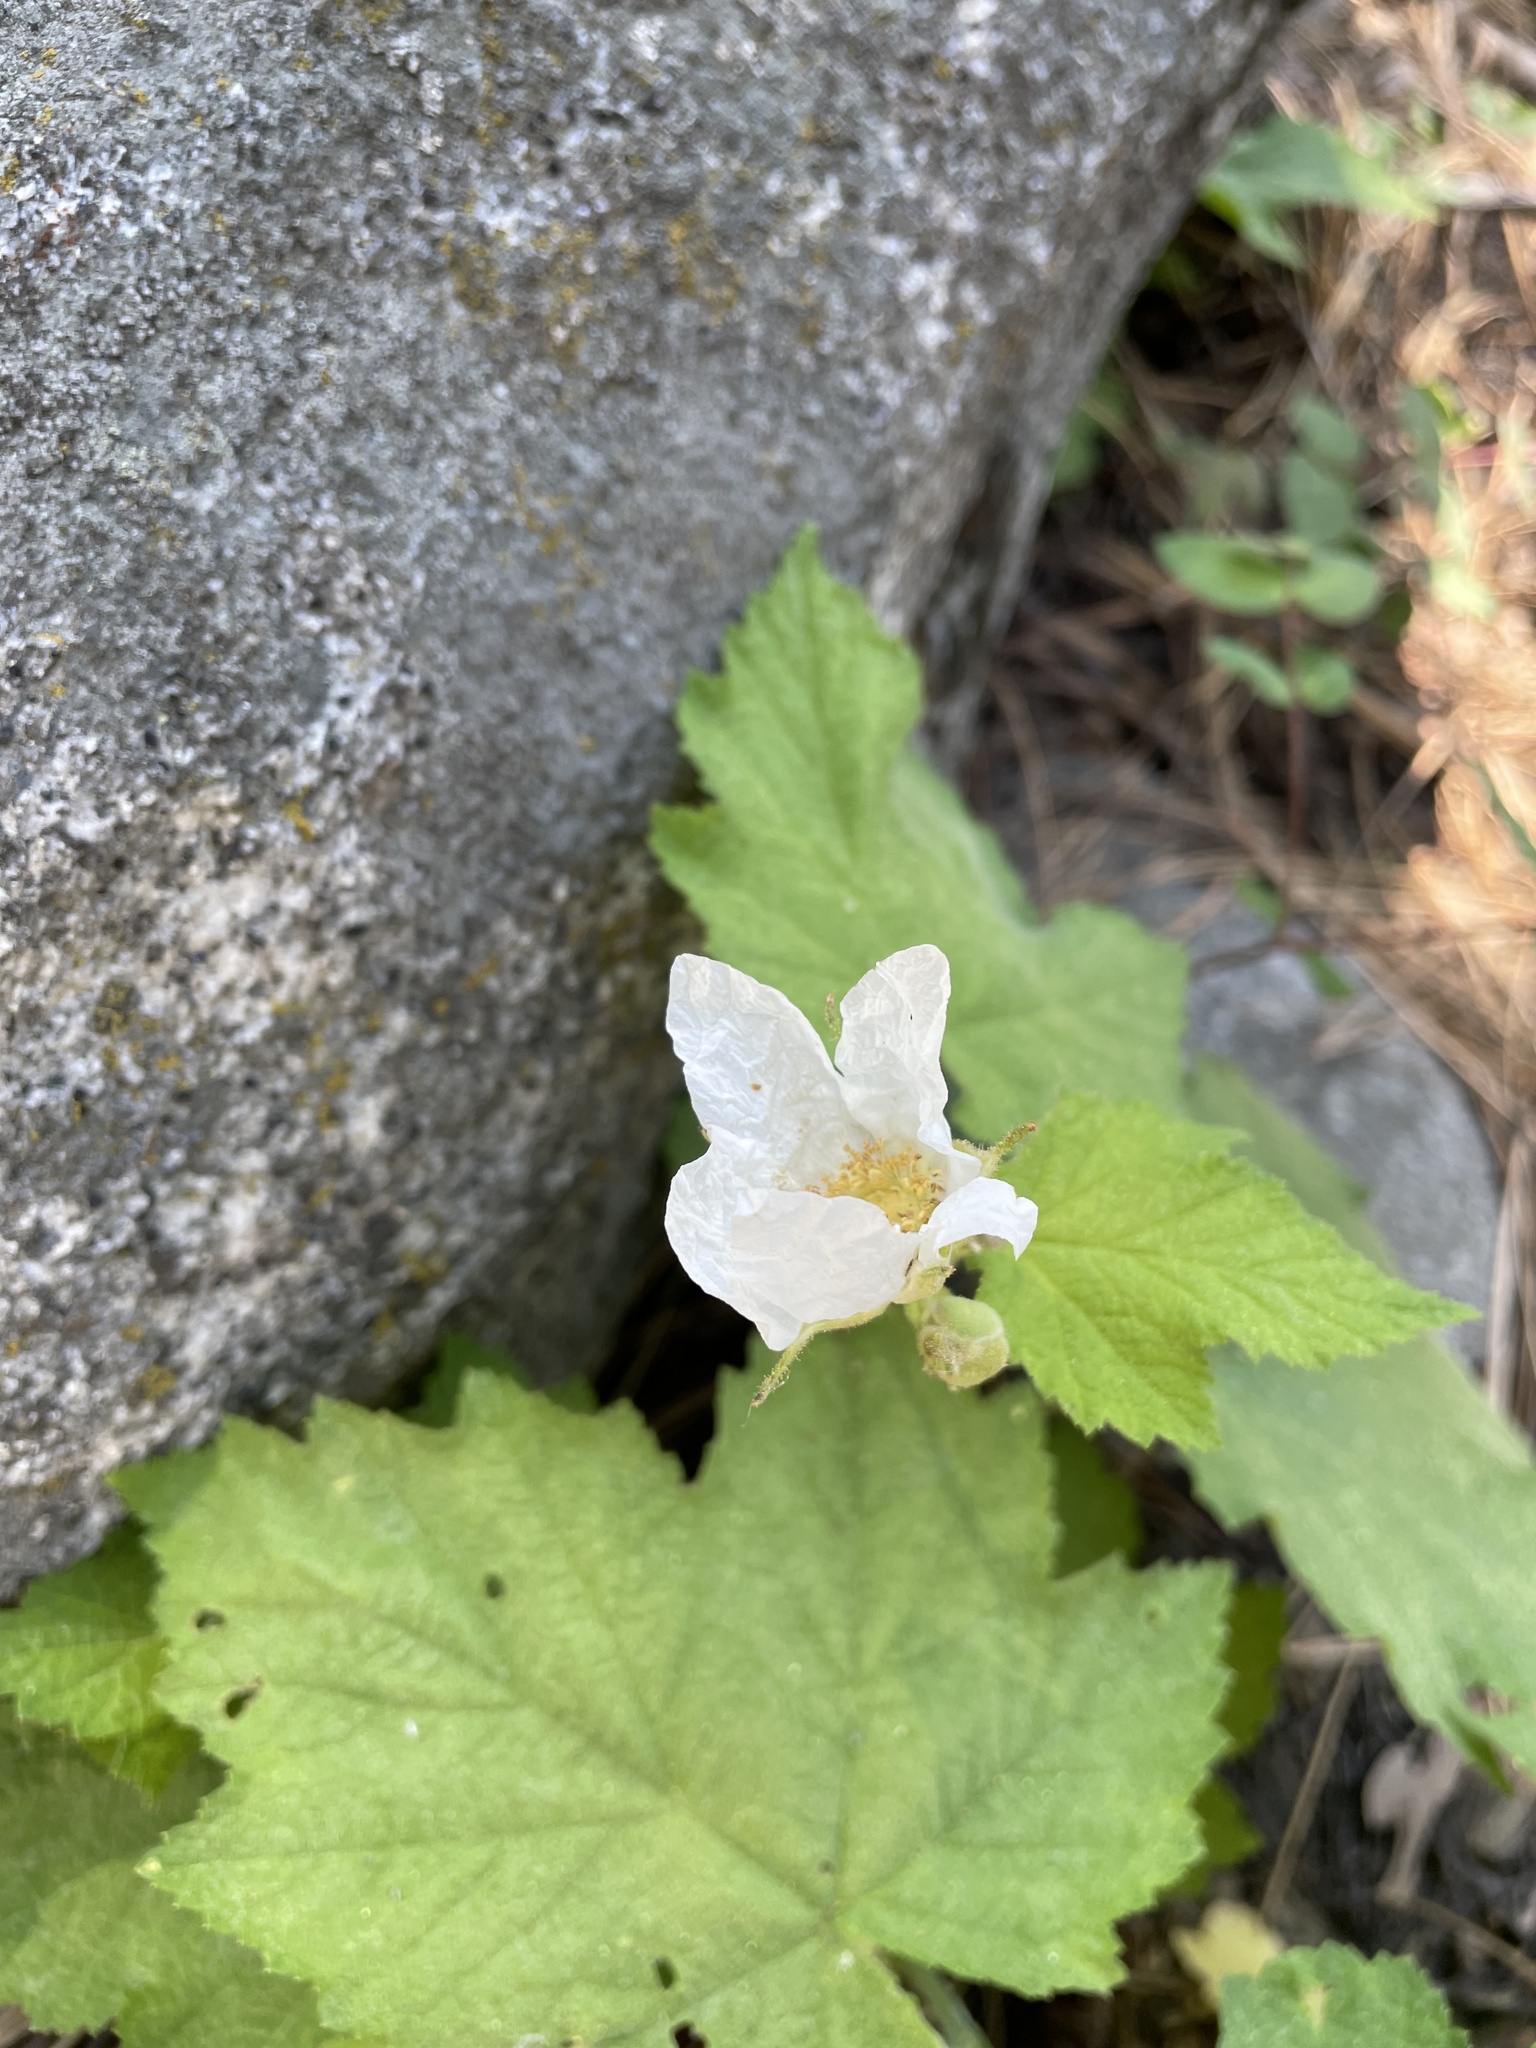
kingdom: Plantae
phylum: Tracheophyta
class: Magnoliopsida
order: Rosales
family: Rosaceae
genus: Rubus
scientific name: Rubus parviflorus
